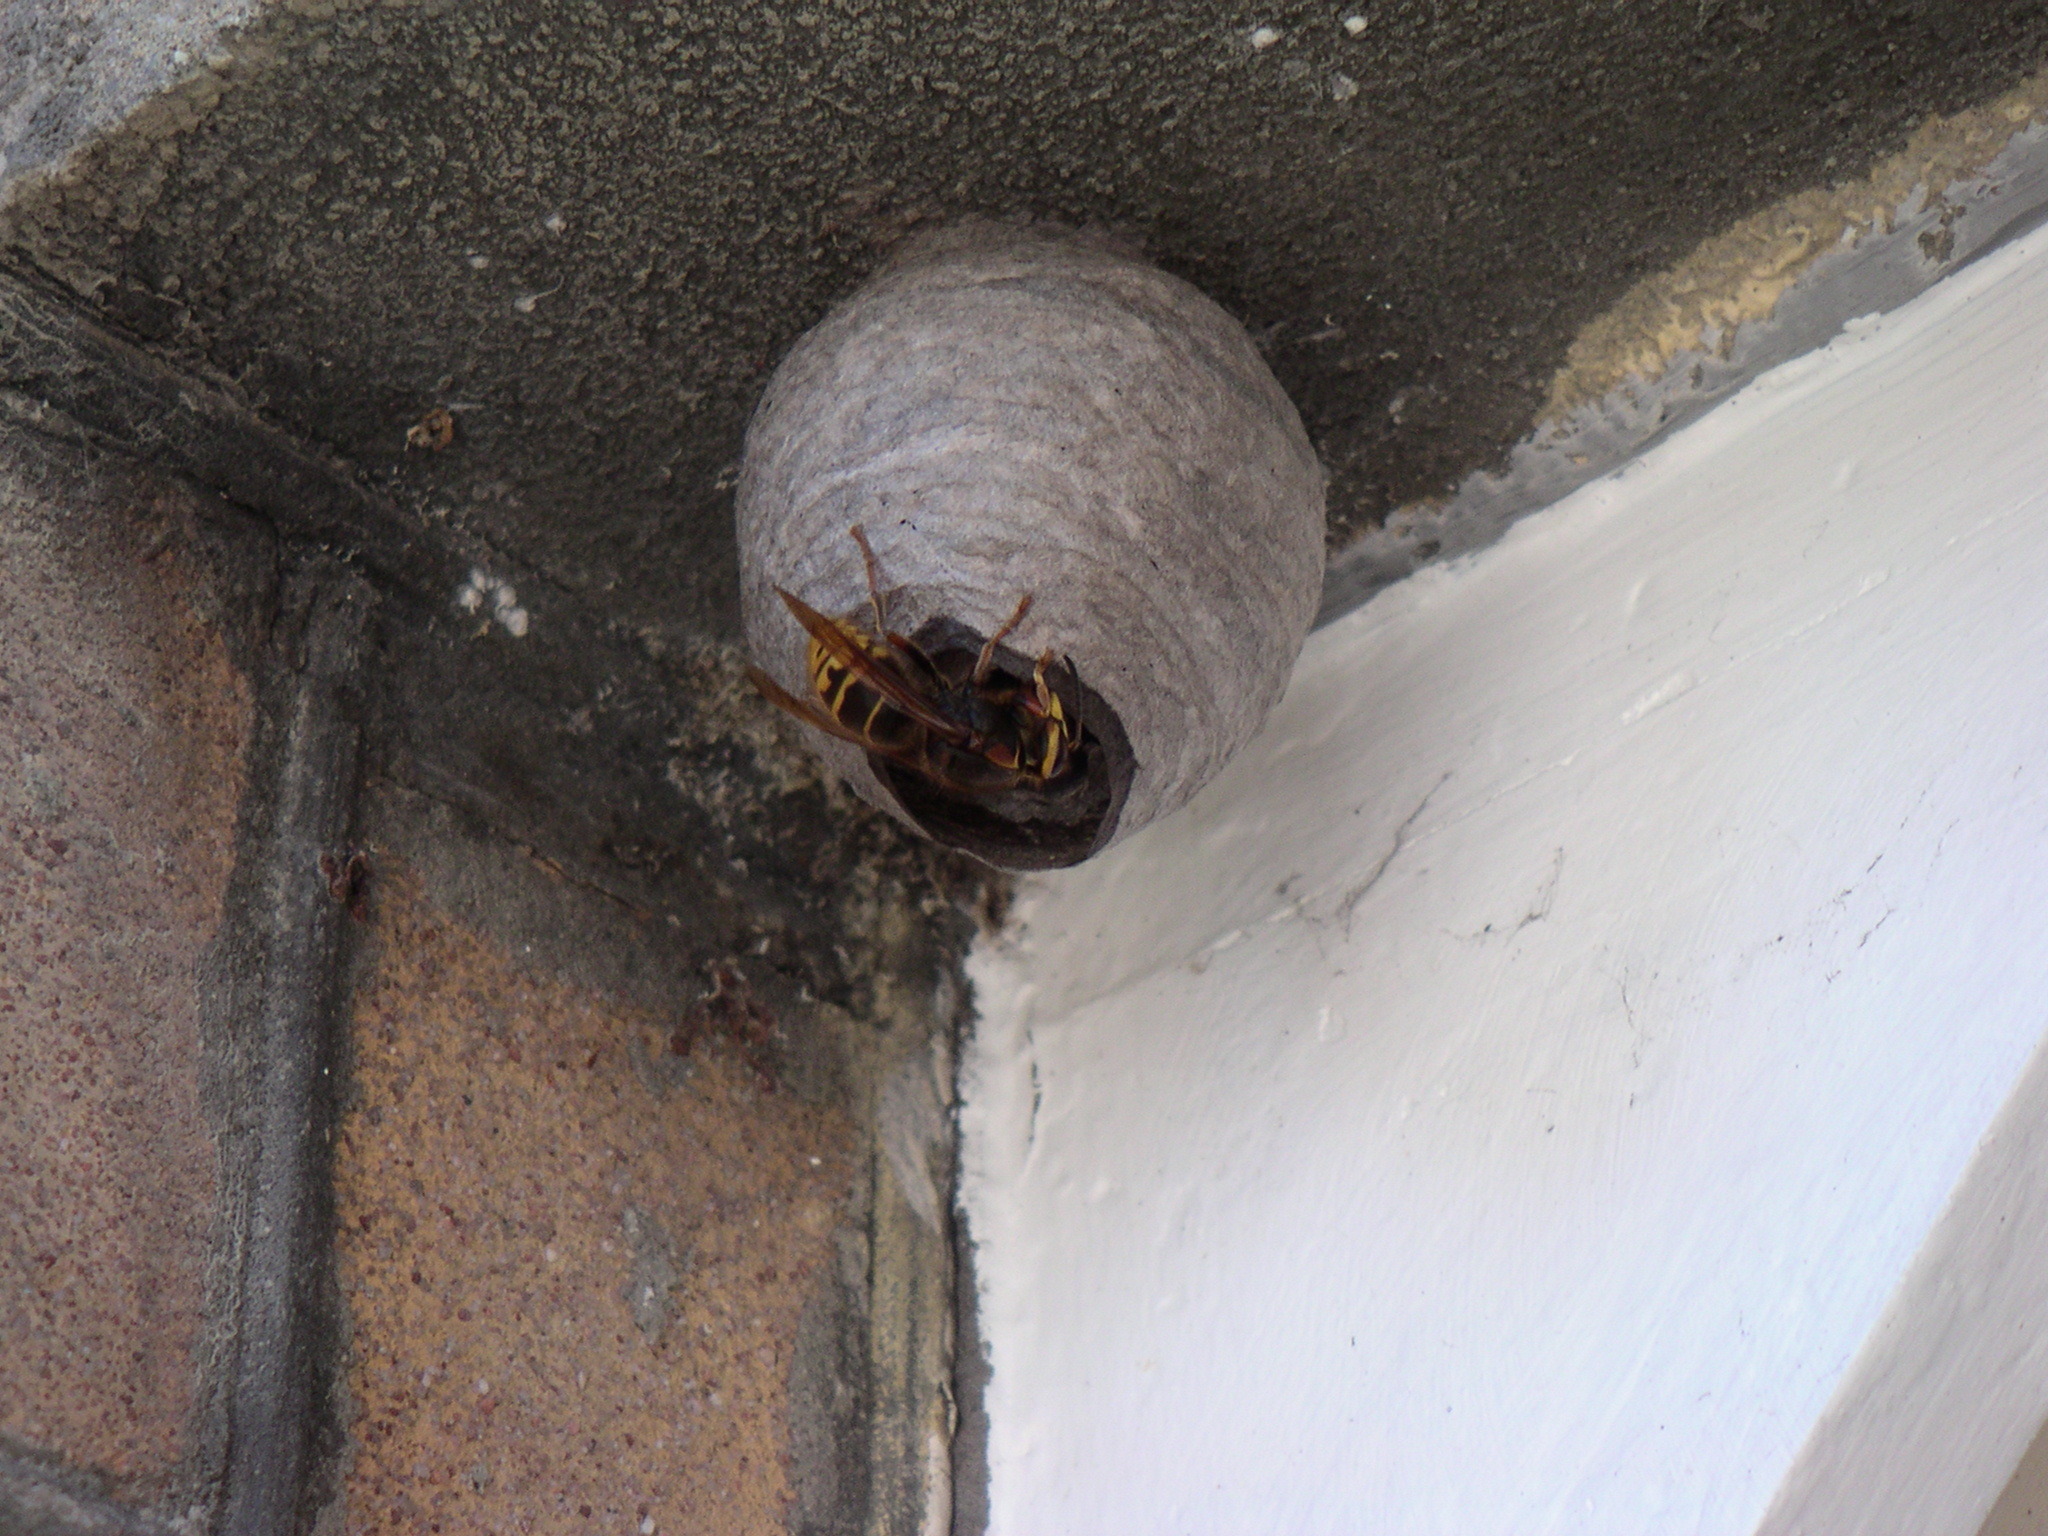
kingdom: Animalia
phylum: Arthropoda
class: Insecta
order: Hymenoptera
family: Vespidae
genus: Dolichovespula
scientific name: Dolichovespula media
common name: Median wasp
